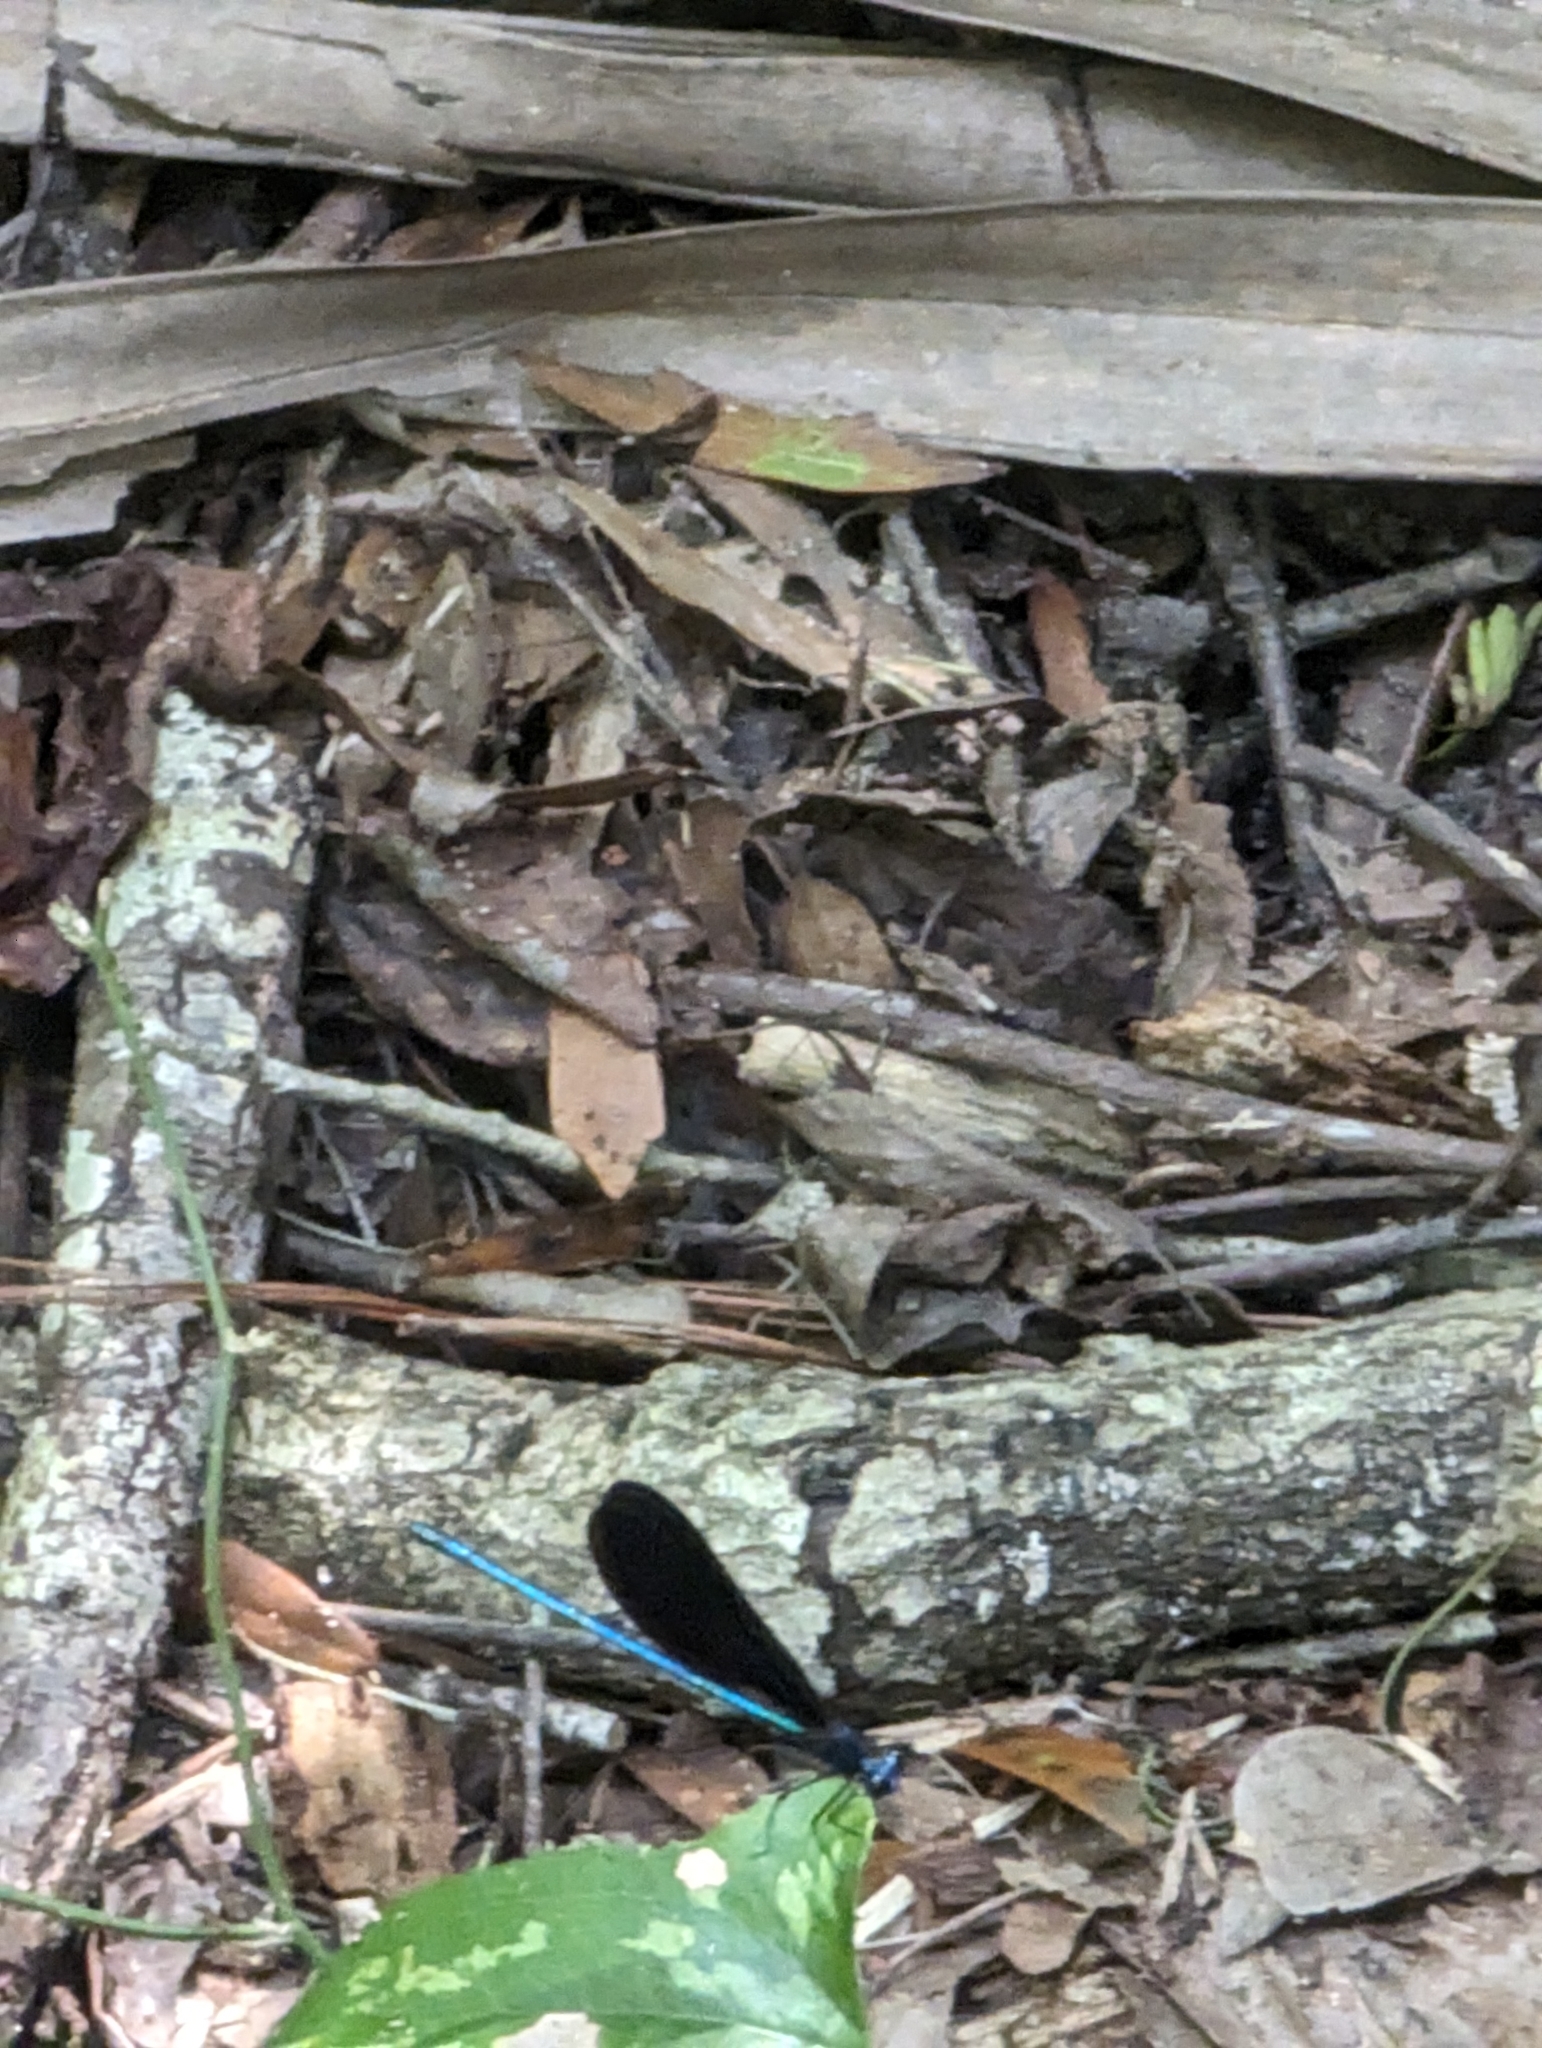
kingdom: Animalia
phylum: Arthropoda
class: Insecta
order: Odonata
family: Calopterygidae
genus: Calopteryx
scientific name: Calopteryx maculata
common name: Ebony jewelwing
